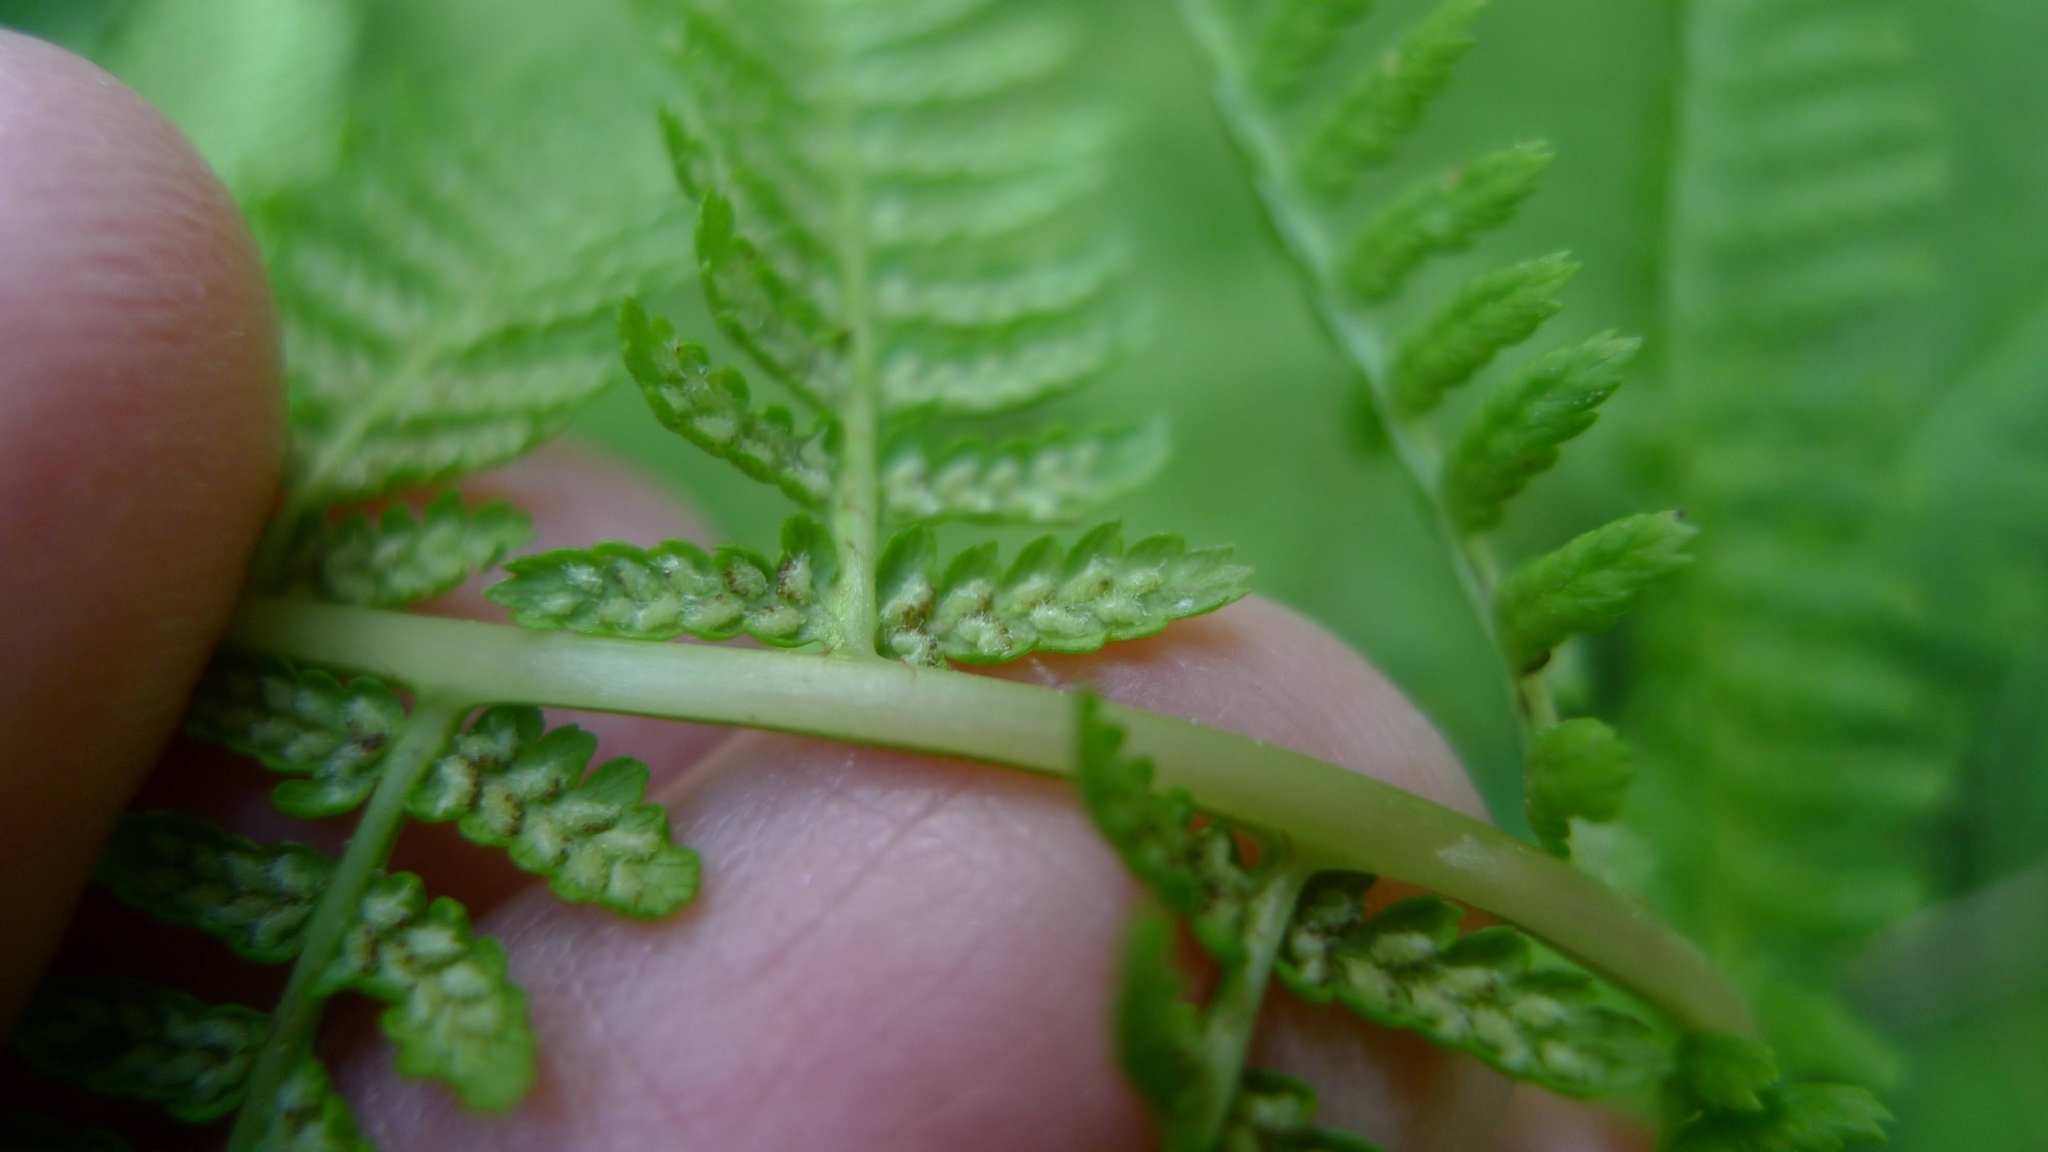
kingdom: Plantae
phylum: Tracheophyta
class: Polypodiopsida
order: Polypodiales
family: Athyriaceae
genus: Athyrium
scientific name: Athyrium filix-femina
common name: Lady fern
